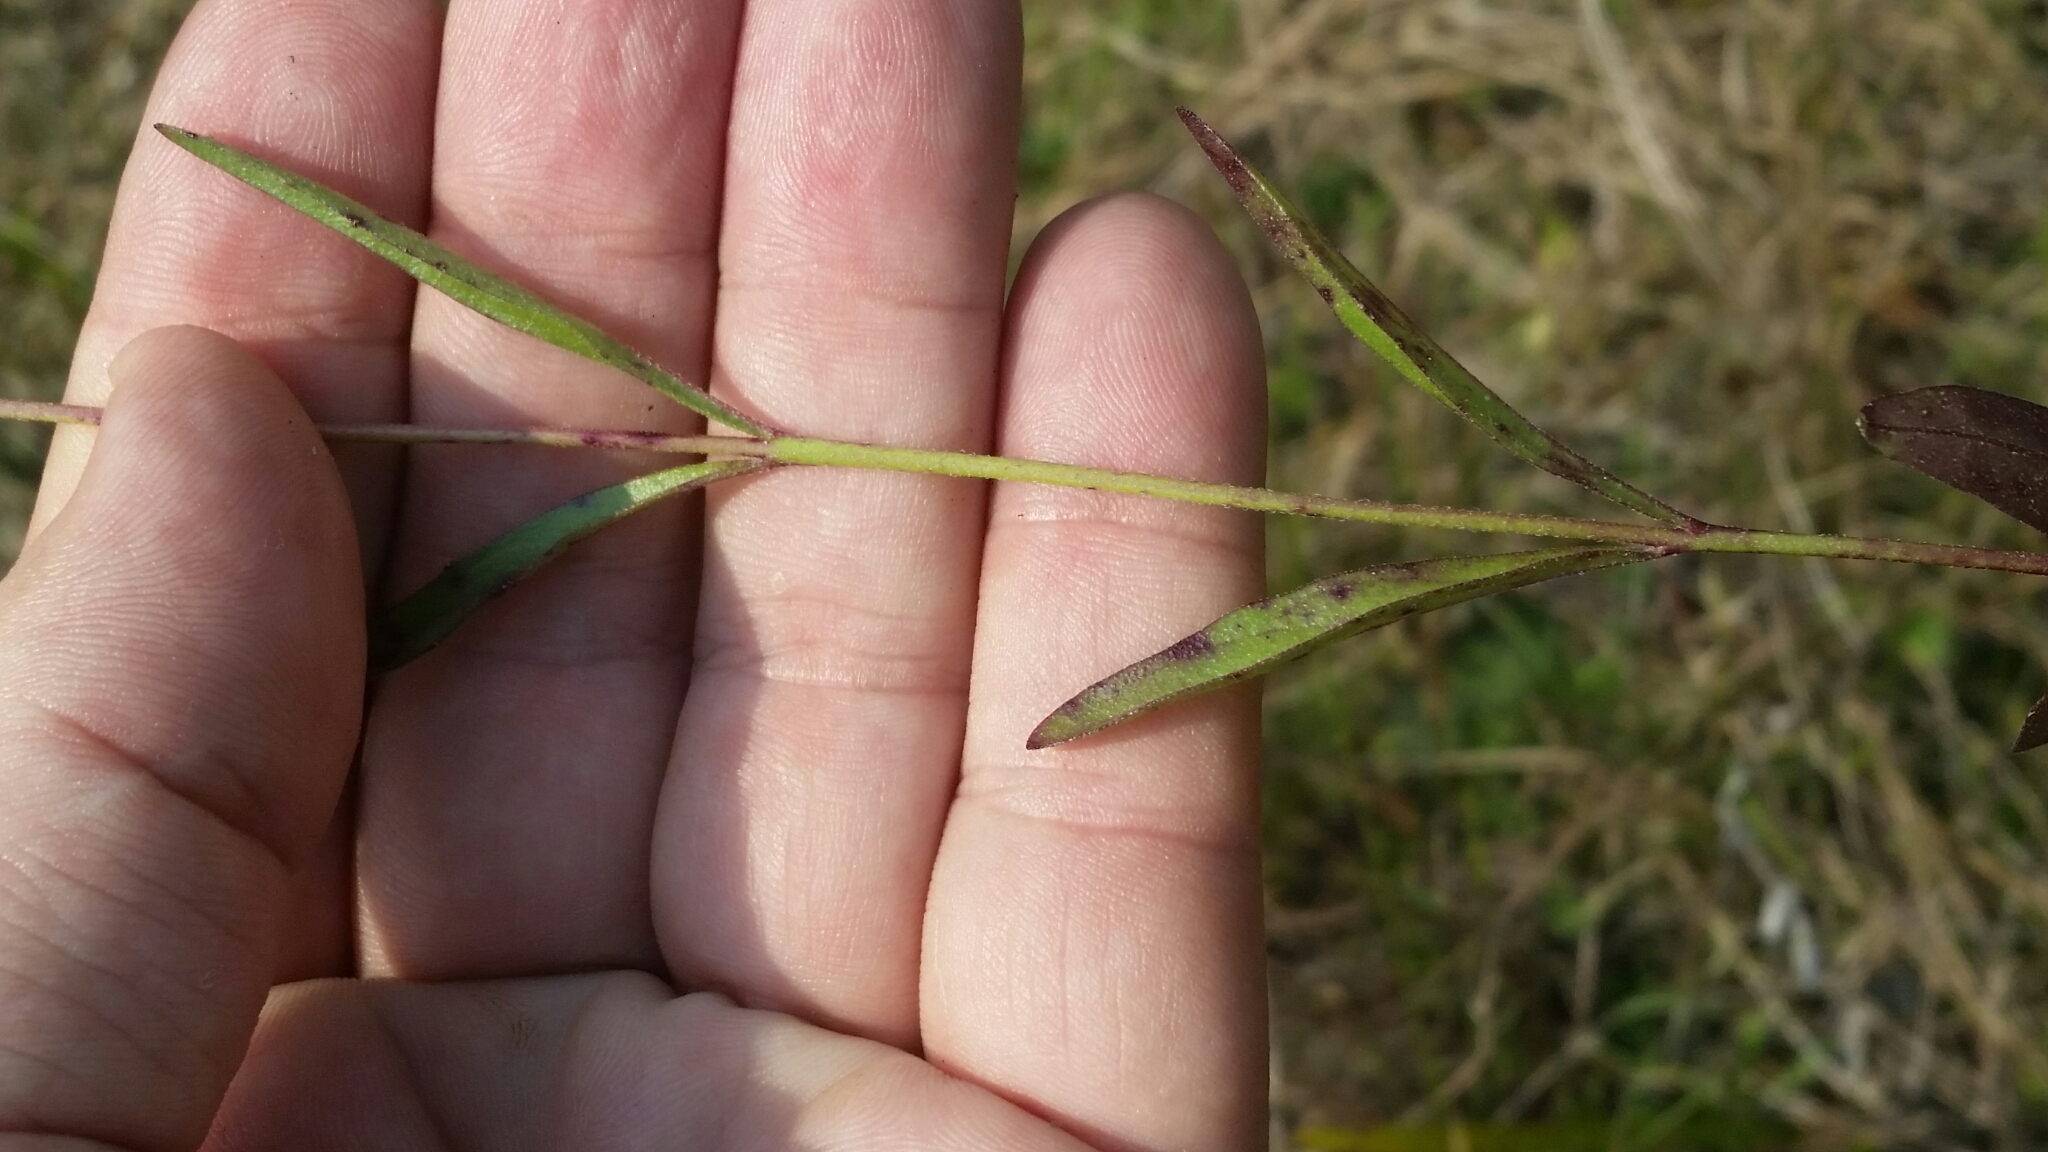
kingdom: Plantae
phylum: Tracheophyta
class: Magnoliopsida
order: Lamiales
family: Orobanchaceae
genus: Buchnera
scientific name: Buchnera floridana
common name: Florida bluehearts
